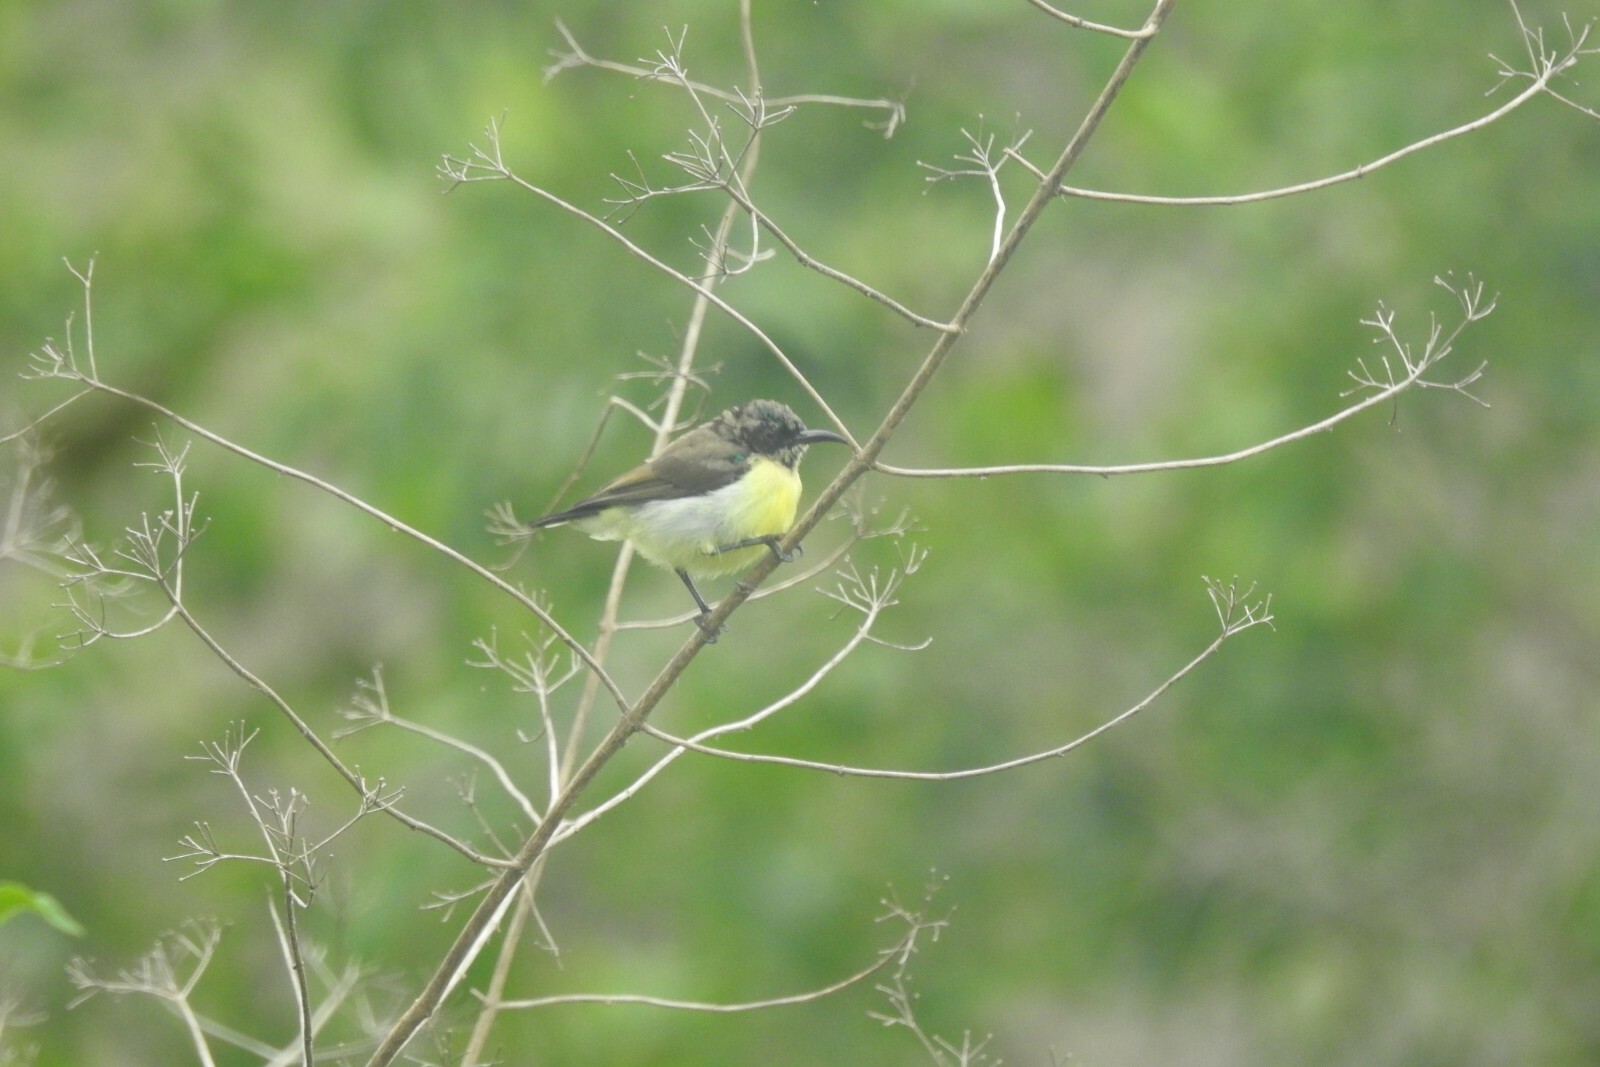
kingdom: Animalia
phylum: Chordata
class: Aves
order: Passeriformes
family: Nectariniidae
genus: Leptocoma
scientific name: Leptocoma zeylonica
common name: Purple-rumped sunbird
